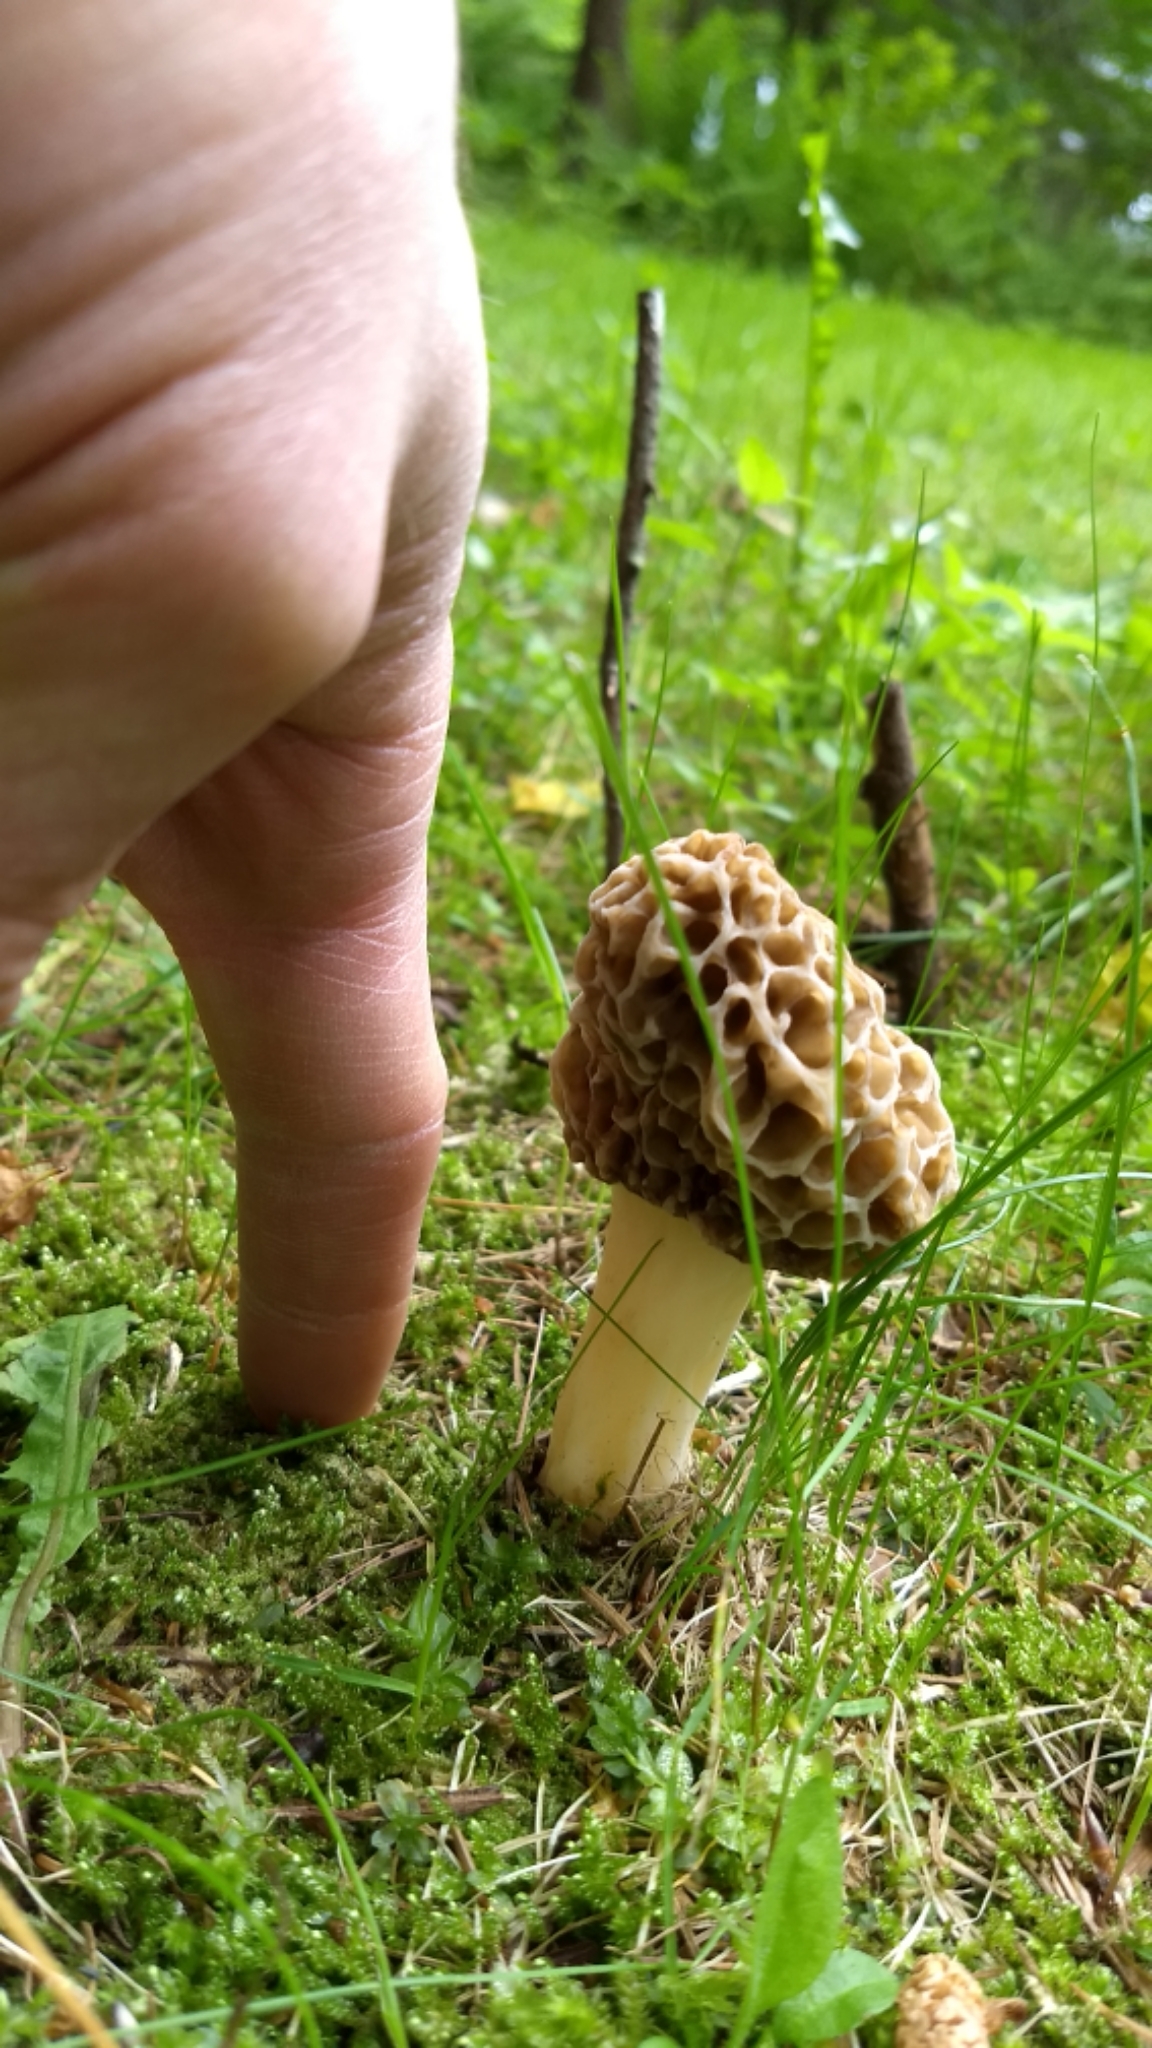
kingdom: Fungi
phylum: Ascomycota
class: Pezizomycetes
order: Pezizales
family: Morchellaceae
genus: Morchella
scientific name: Morchella americana
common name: White morel
